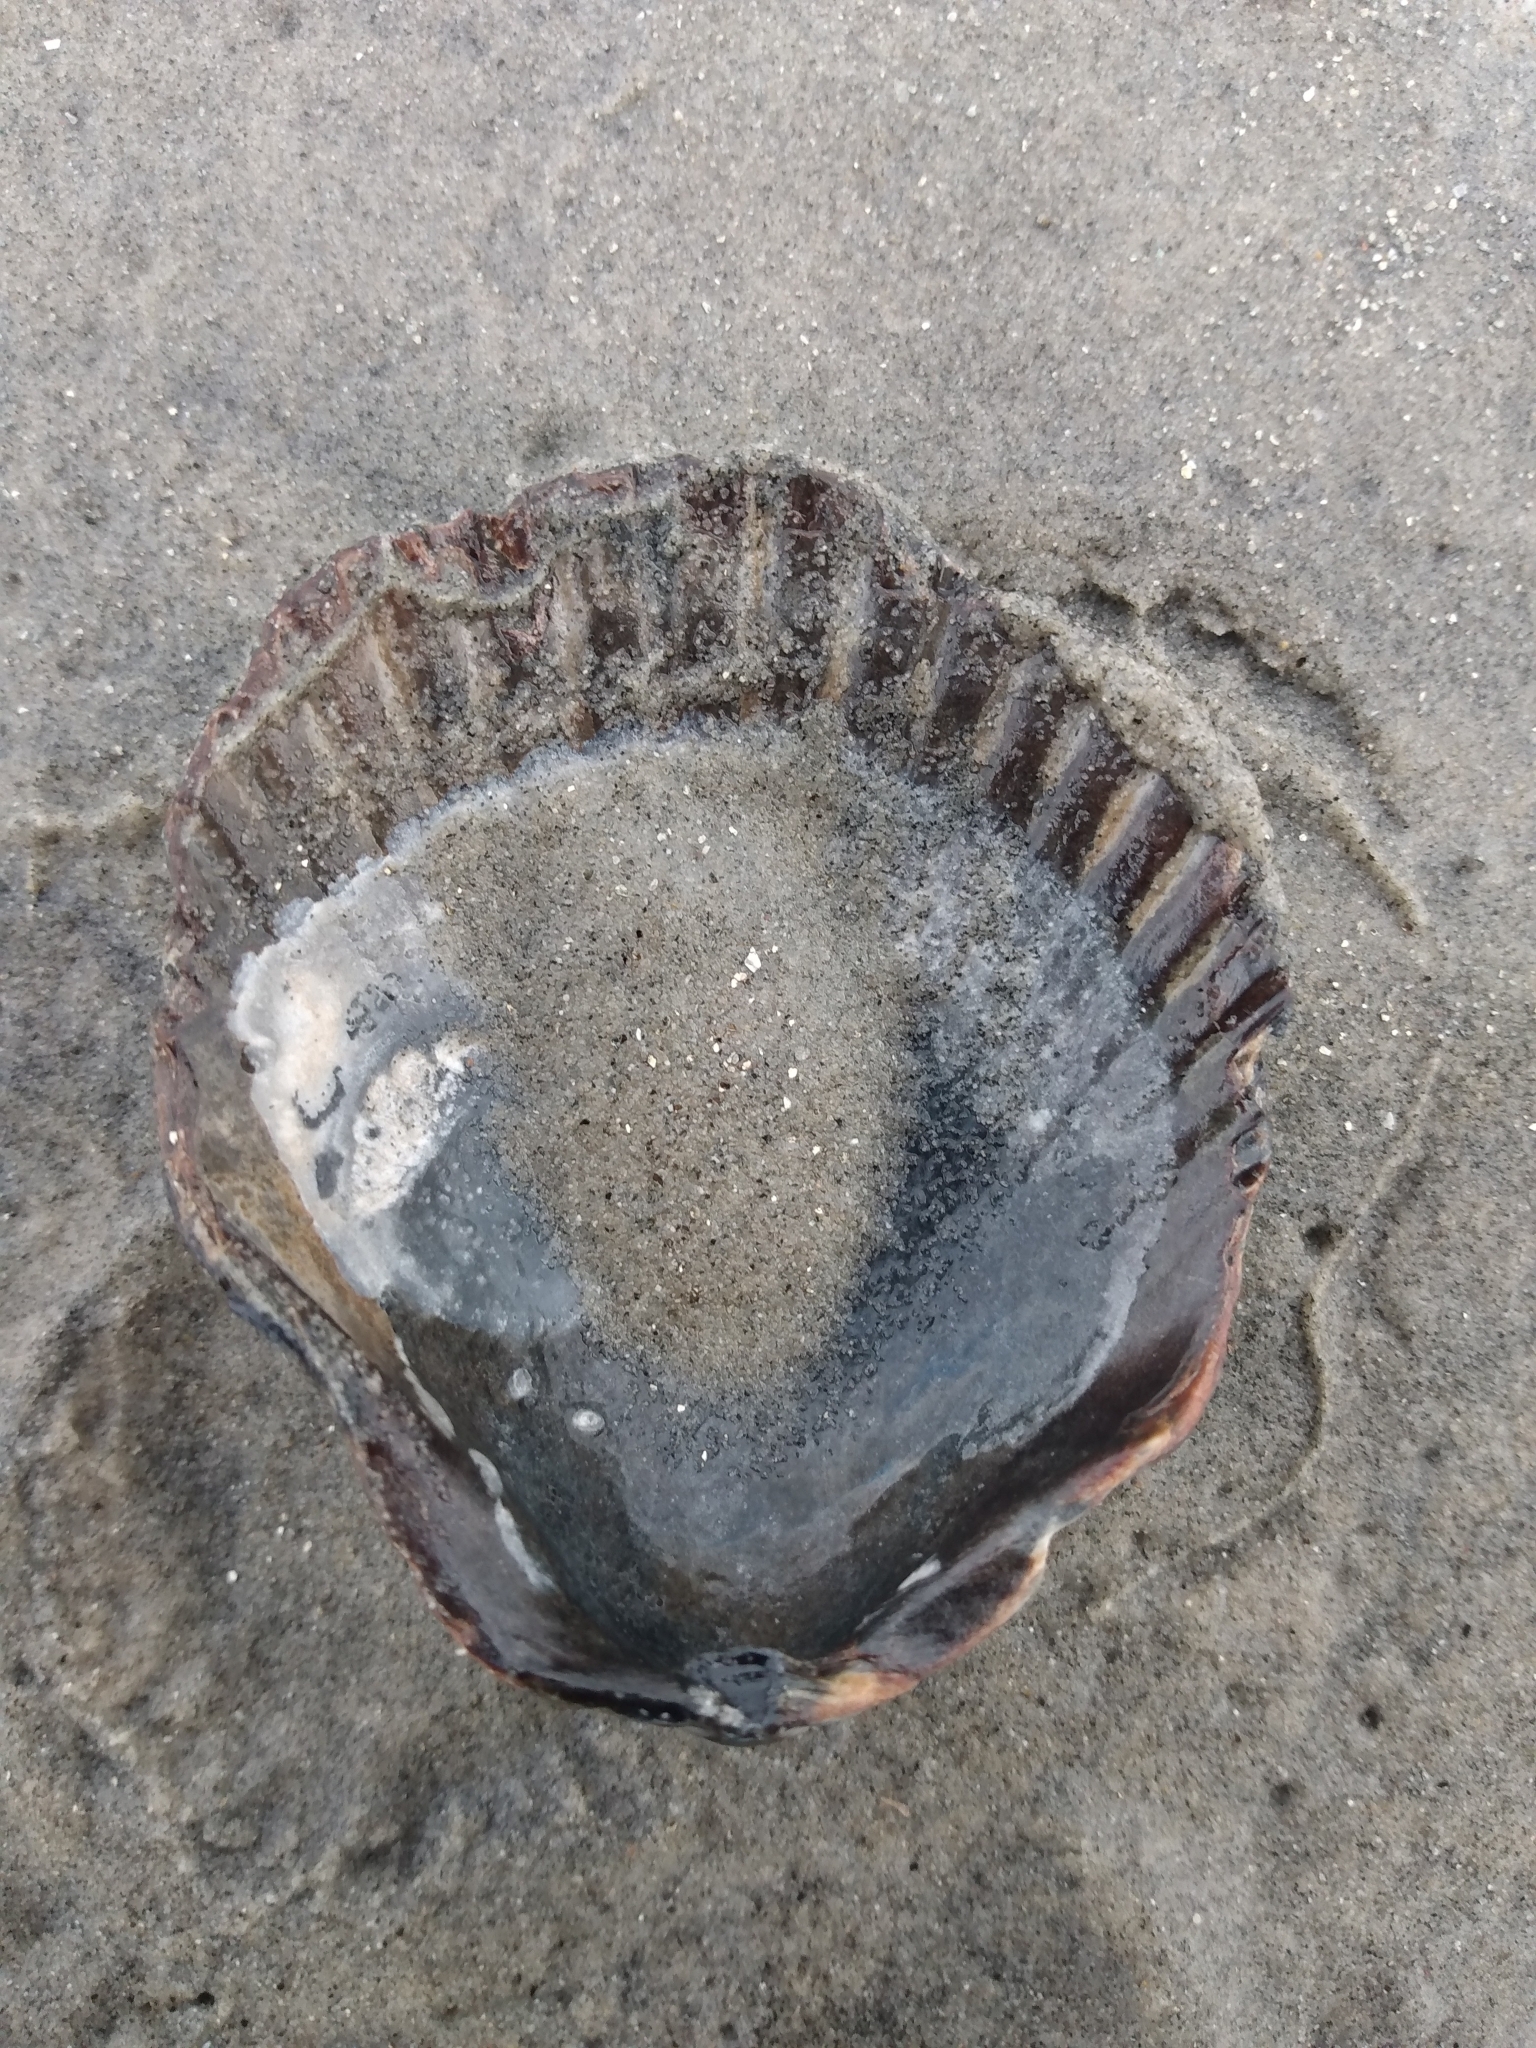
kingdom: Animalia
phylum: Mollusca
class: Bivalvia
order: Pectinida
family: Pectinidae
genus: Argopecten
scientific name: Argopecten ventricosus
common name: Catarina scallop
